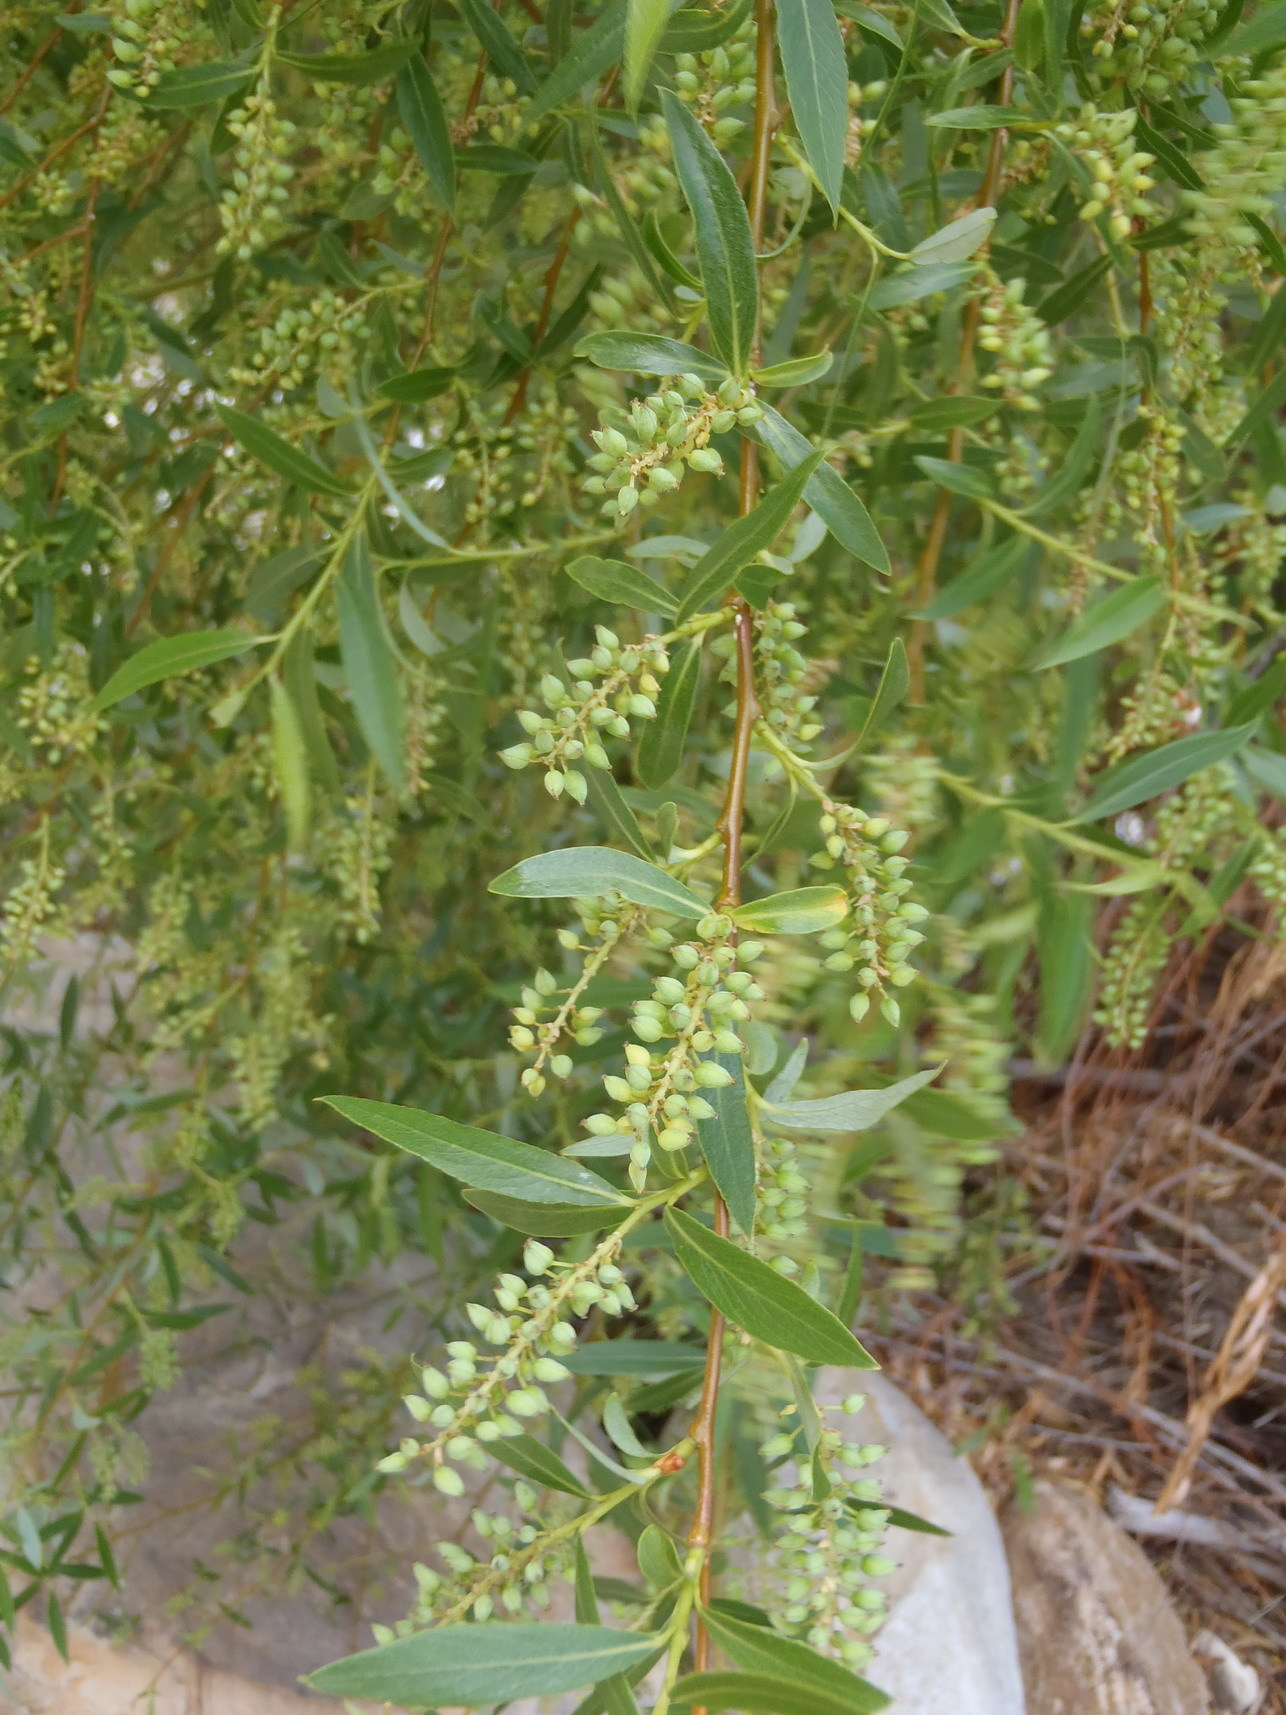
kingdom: Plantae
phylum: Tracheophyta
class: Magnoliopsida
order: Malpighiales
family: Salicaceae
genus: Salix
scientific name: Salix mucronata
